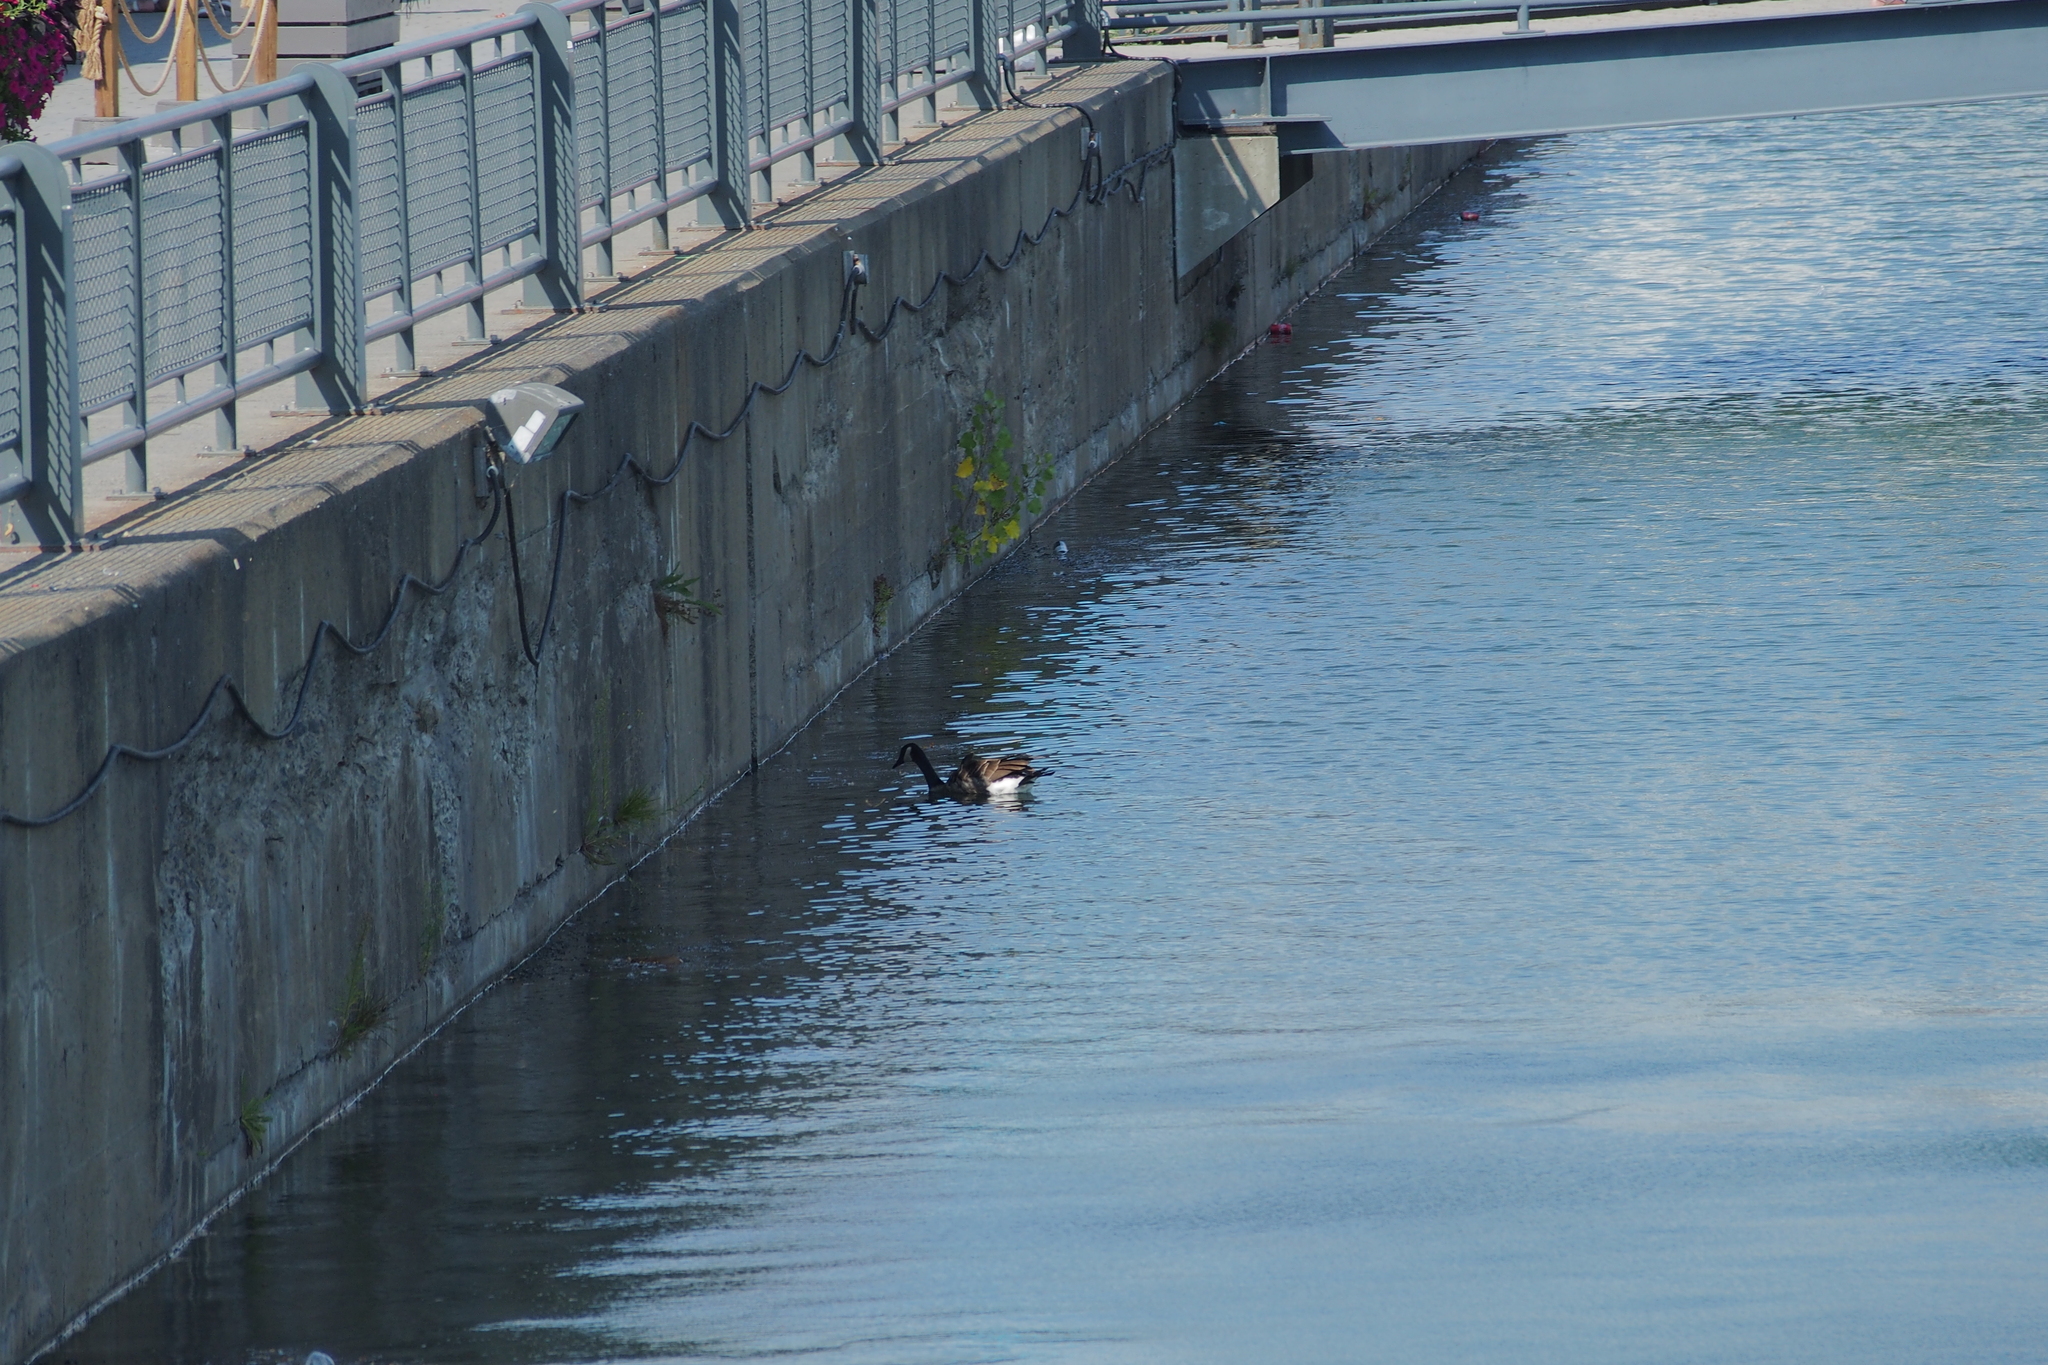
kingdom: Animalia
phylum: Chordata
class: Aves
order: Anseriformes
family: Anatidae
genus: Branta
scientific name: Branta canadensis
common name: Canada goose
